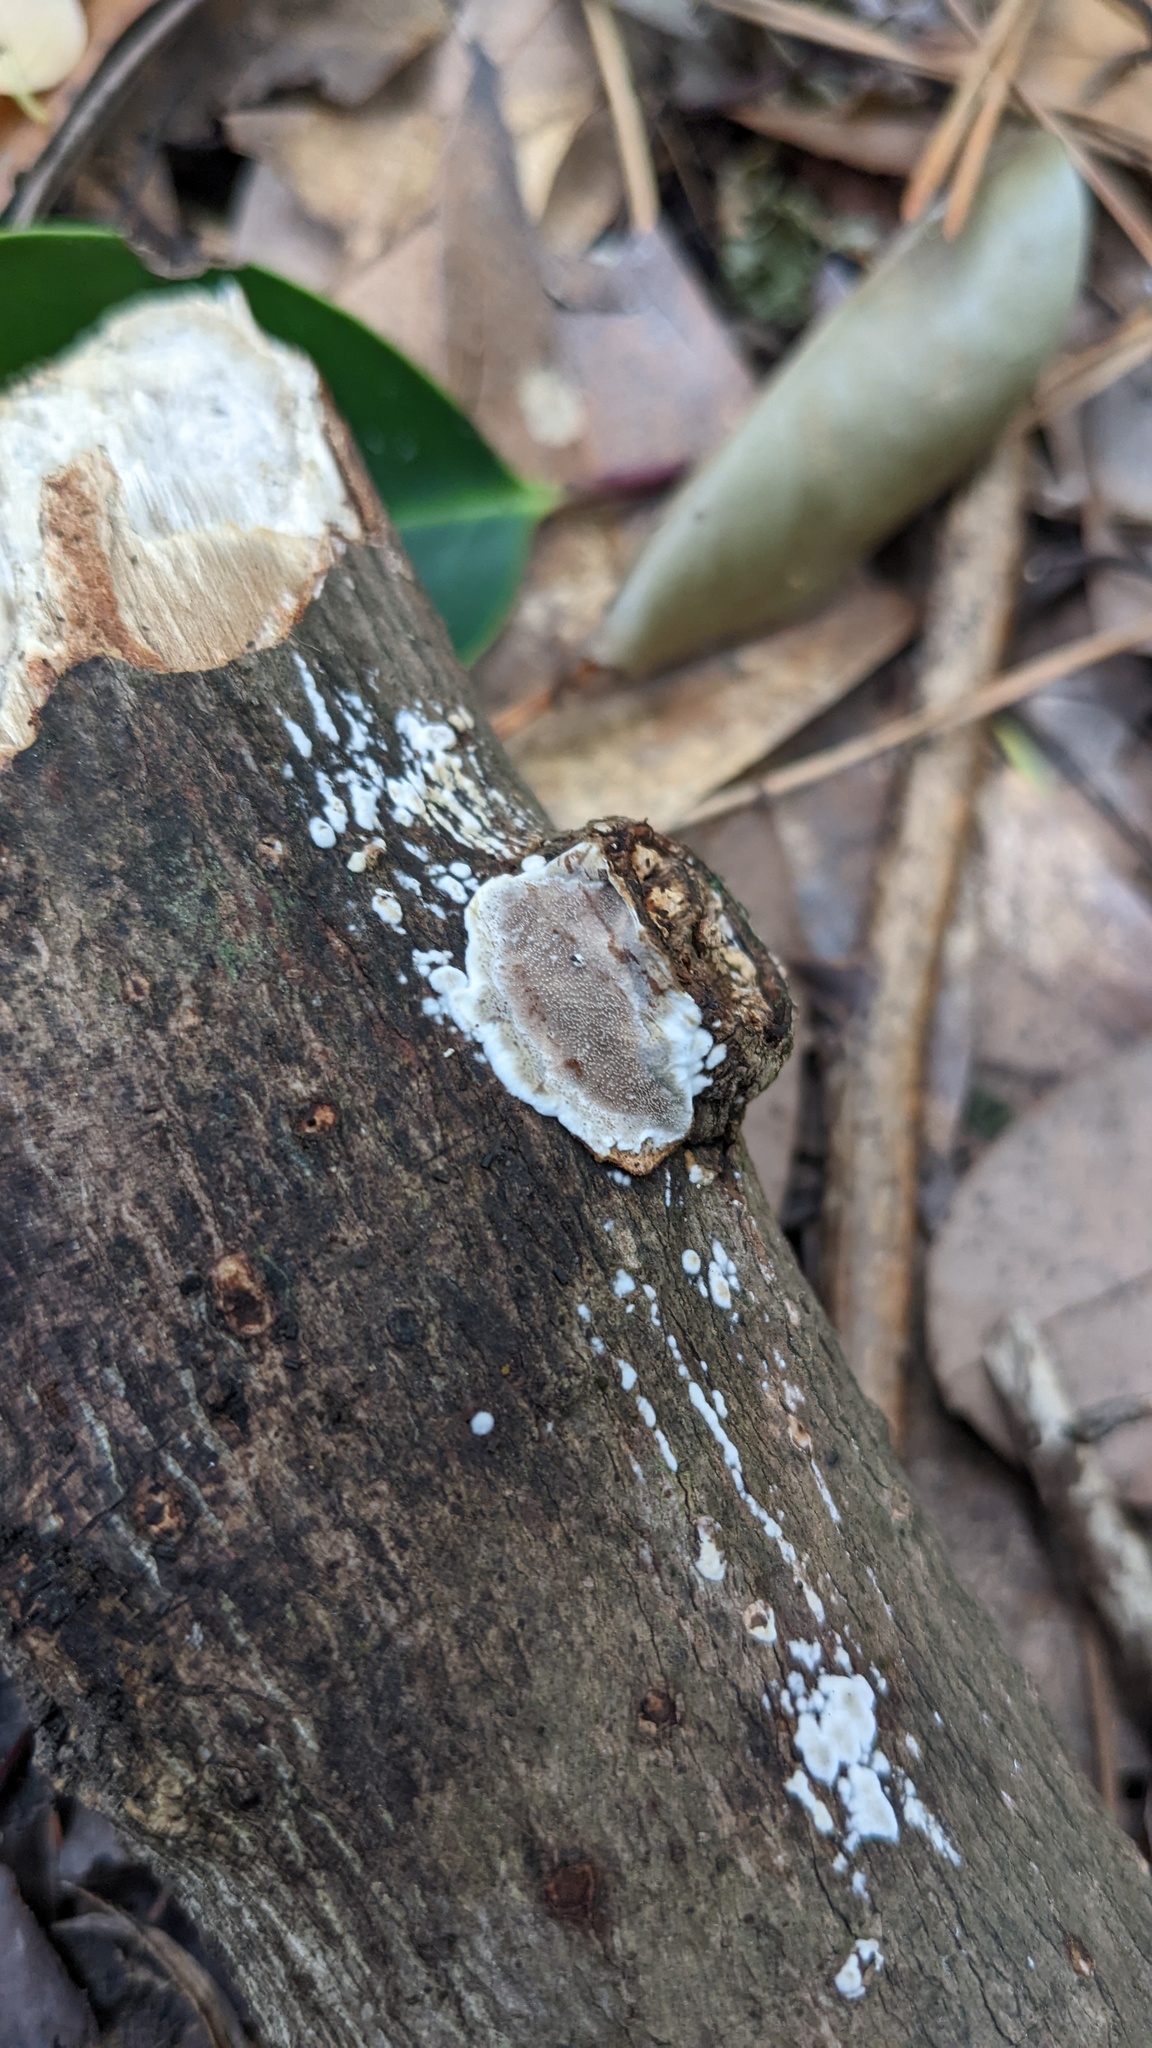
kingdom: Fungi
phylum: Basidiomycota
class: Agaricomycetes
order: Auriculariales
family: Auriculariaceae
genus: Heterochaete
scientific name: Heterochaete delicata
